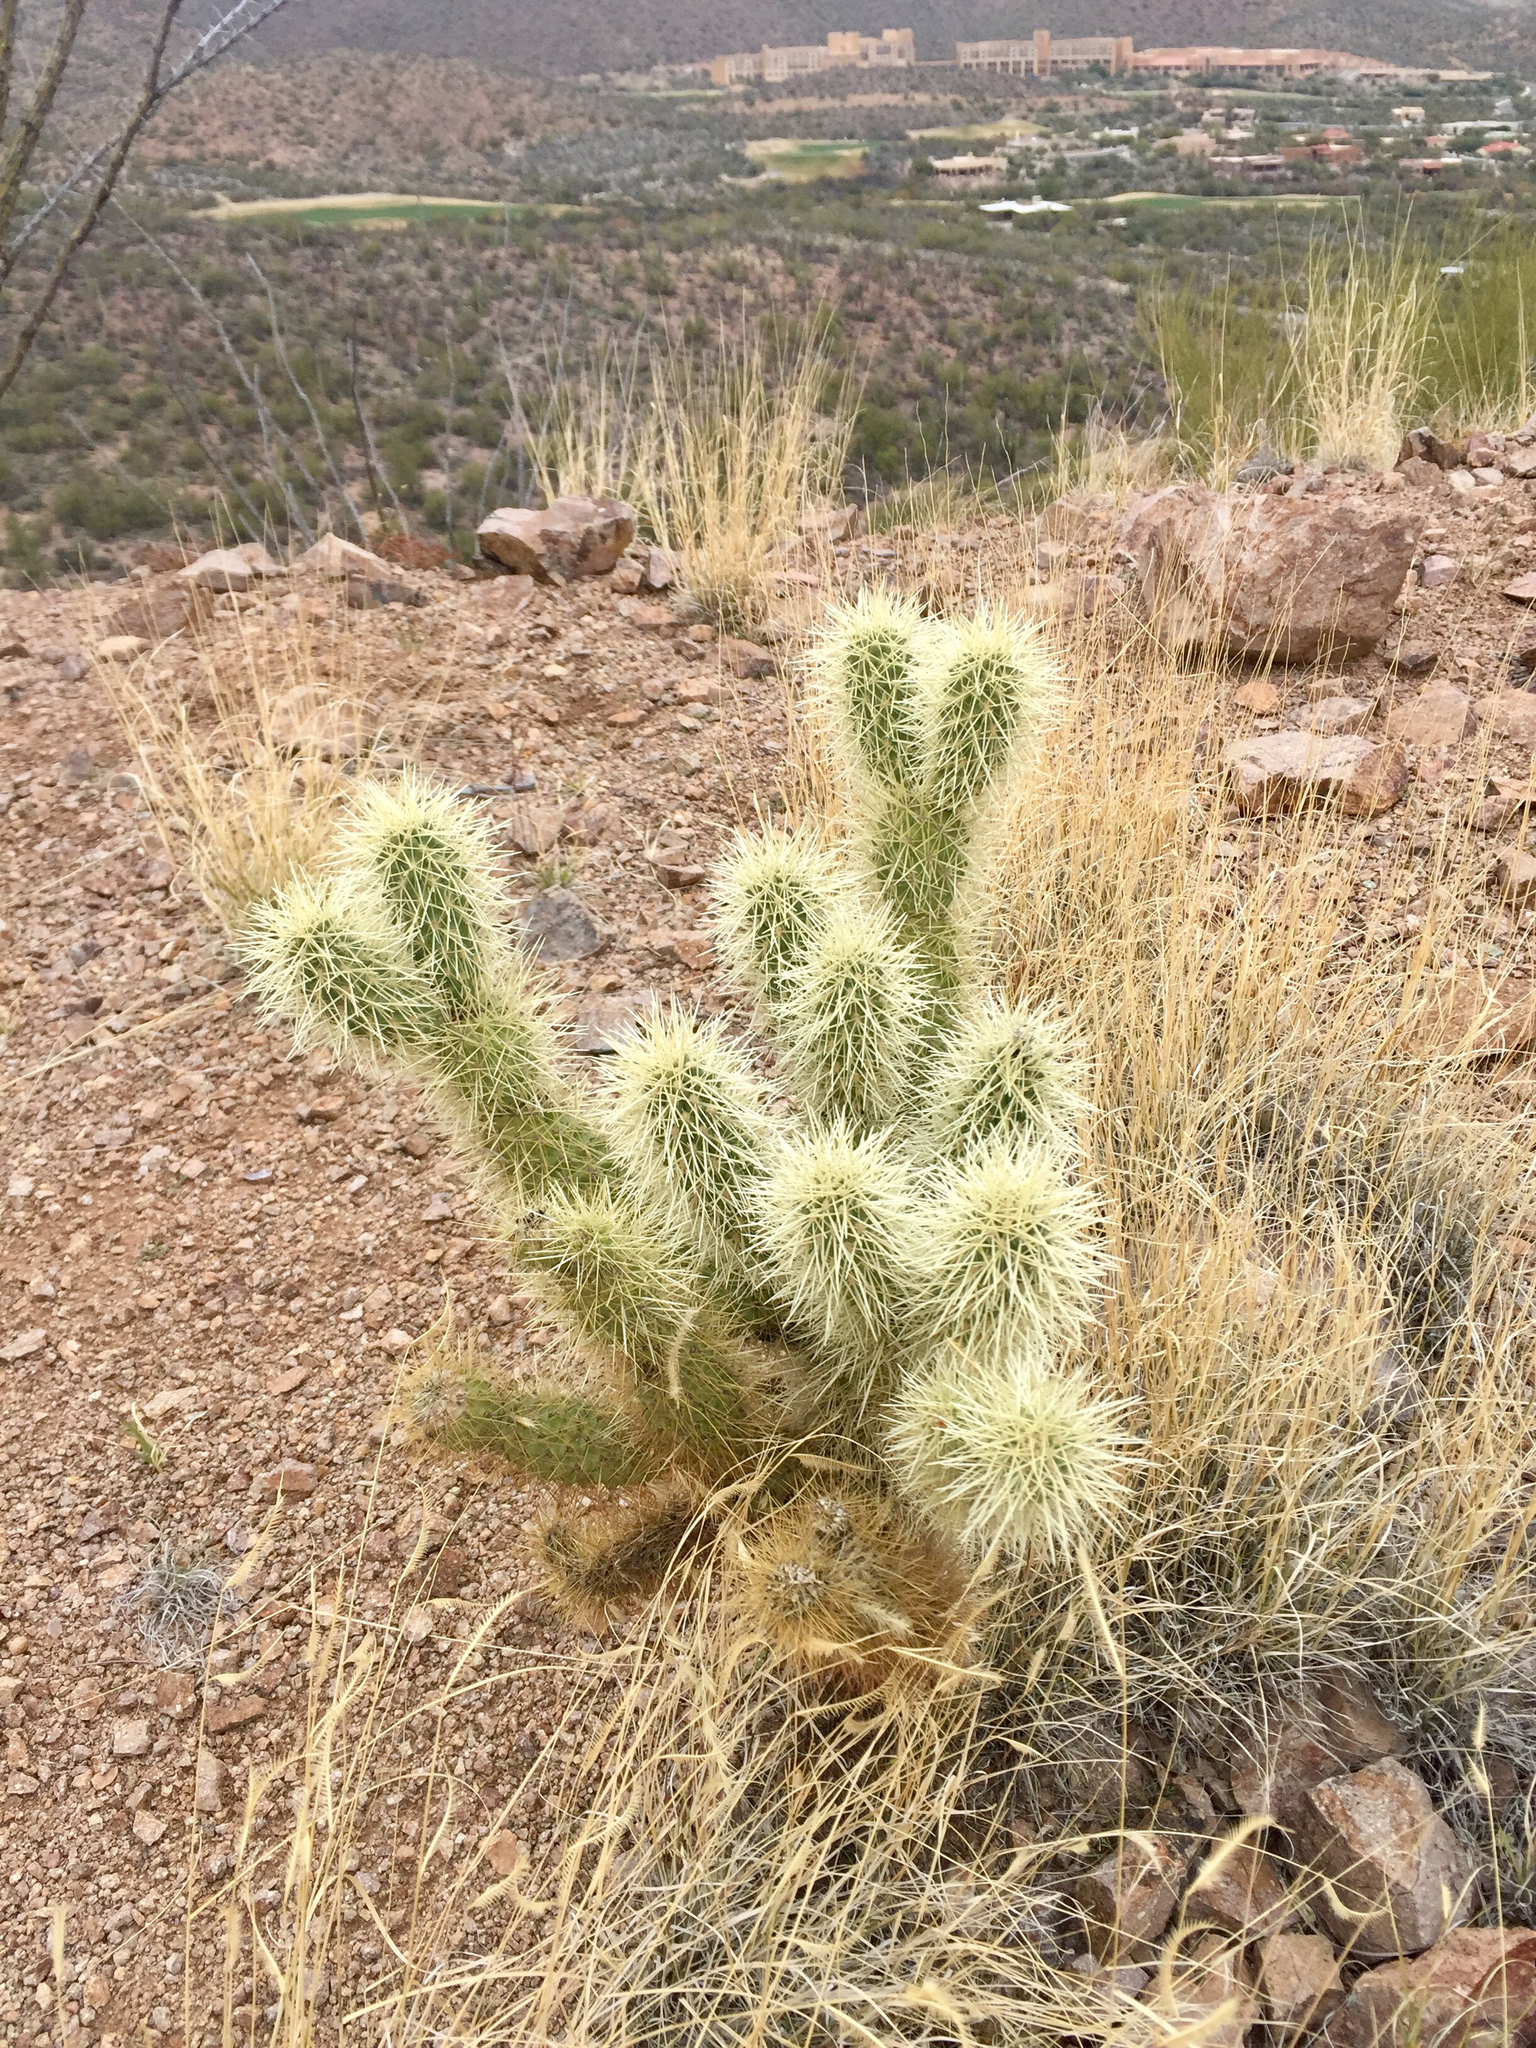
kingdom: Plantae
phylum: Tracheophyta
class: Magnoliopsida
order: Caryophyllales
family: Cactaceae
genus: Cylindropuntia
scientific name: Cylindropuntia fosbergii
